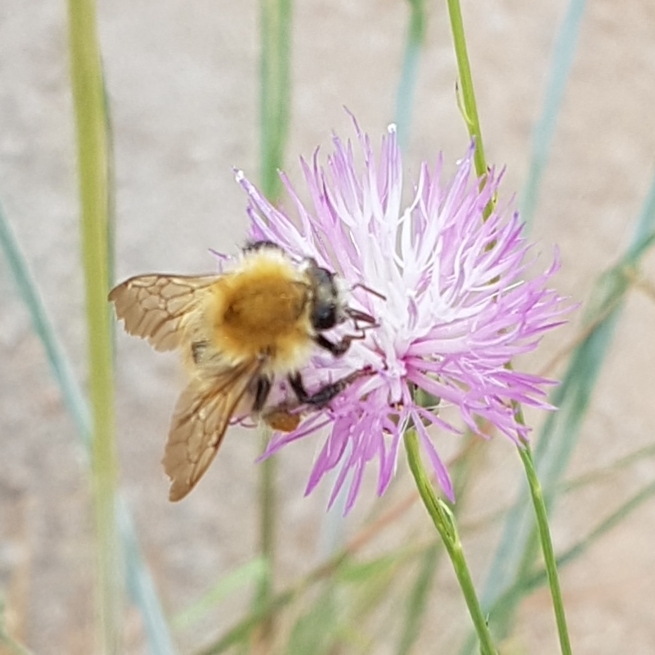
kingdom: Animalia
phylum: Arthropoda
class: Insecta
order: Hymenoptera
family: Apidae
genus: Bombus
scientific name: Bombus pascuorum
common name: Common carder bee
